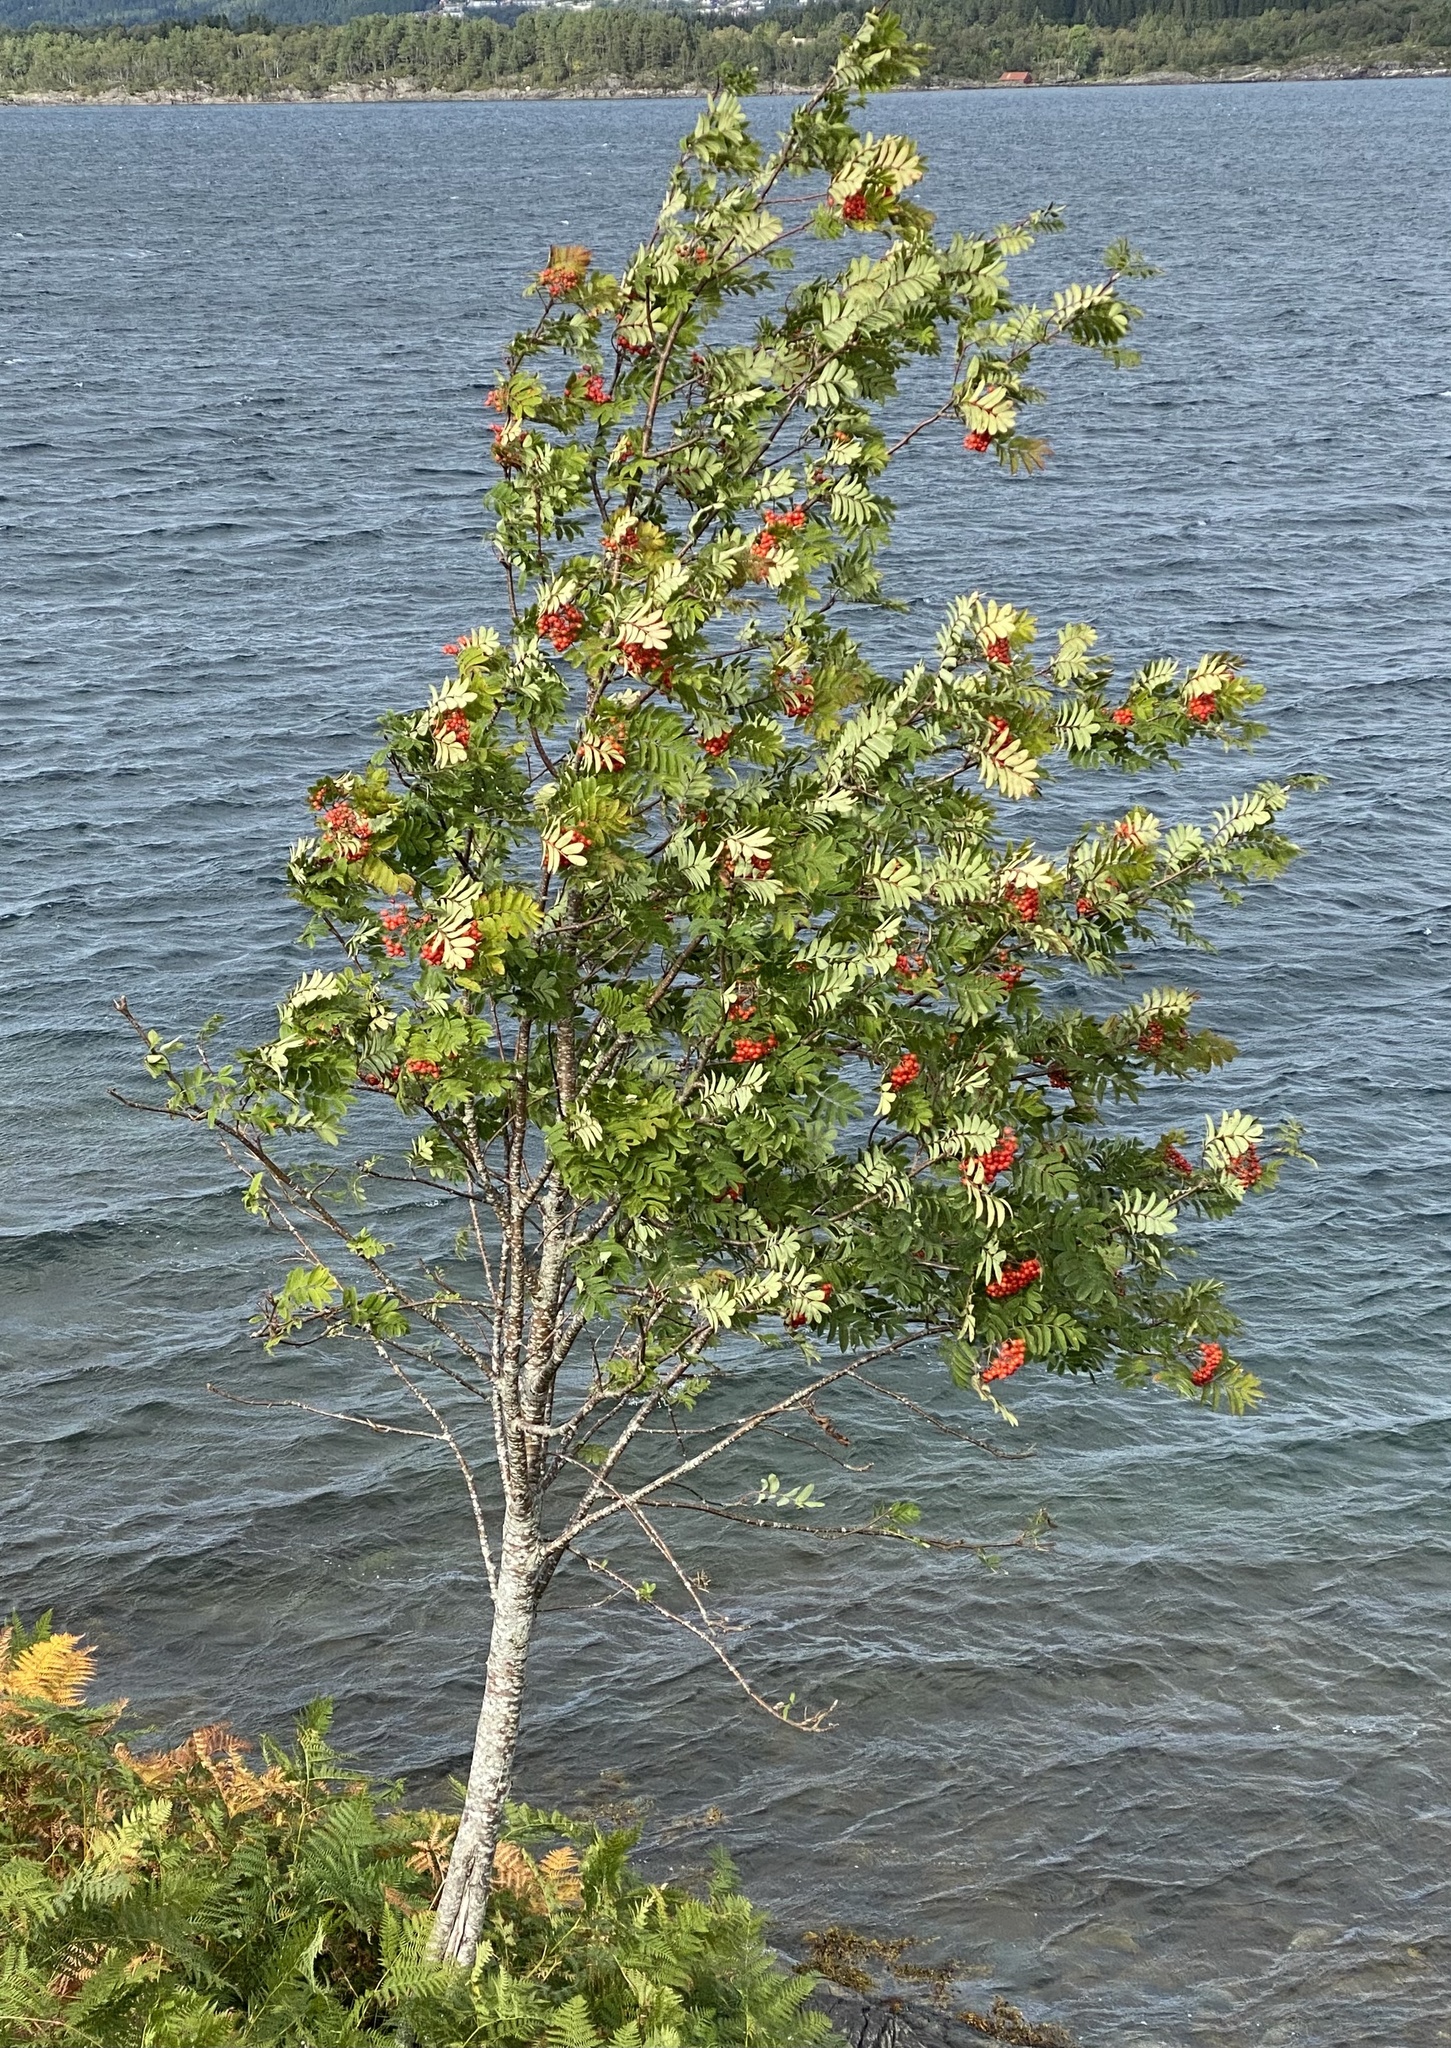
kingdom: Plantae
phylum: Tracheophyta
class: Magnoliopsida
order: Rosales
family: Rosaceae
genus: Sorbus
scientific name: Sorbus aucuparia
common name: Rowan
